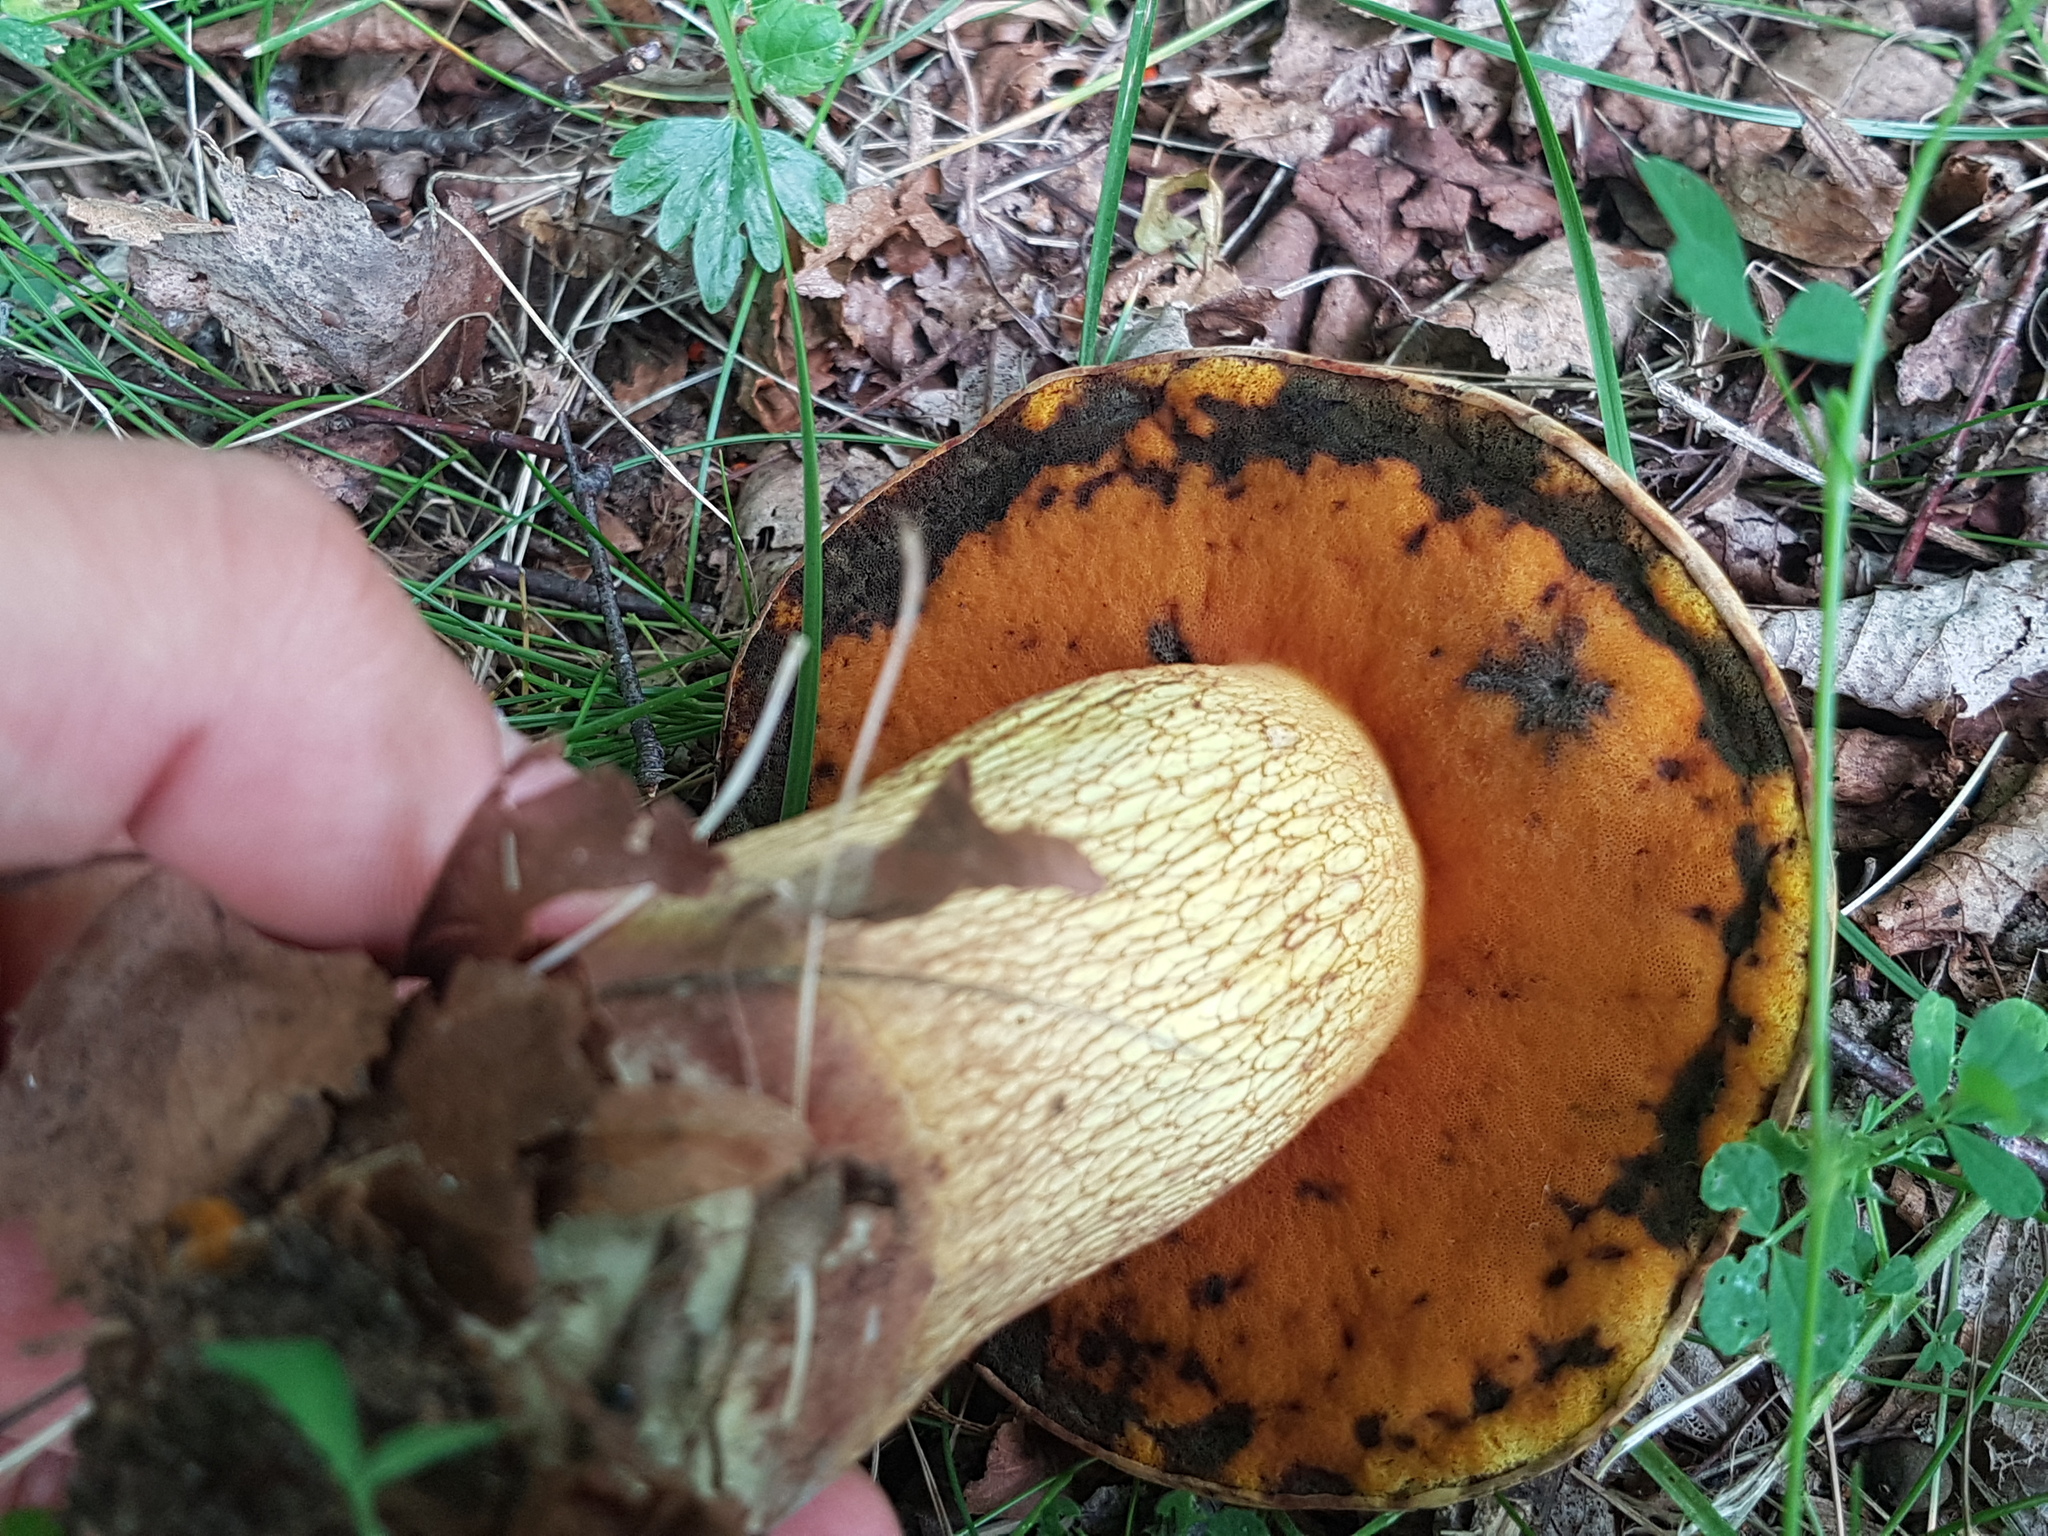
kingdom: Fungi
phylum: Basidiomycota
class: Agaricomycetes
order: Boletales
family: Boletaceae
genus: Suillellus
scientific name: Suillellus luridus
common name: Lurid bolete
